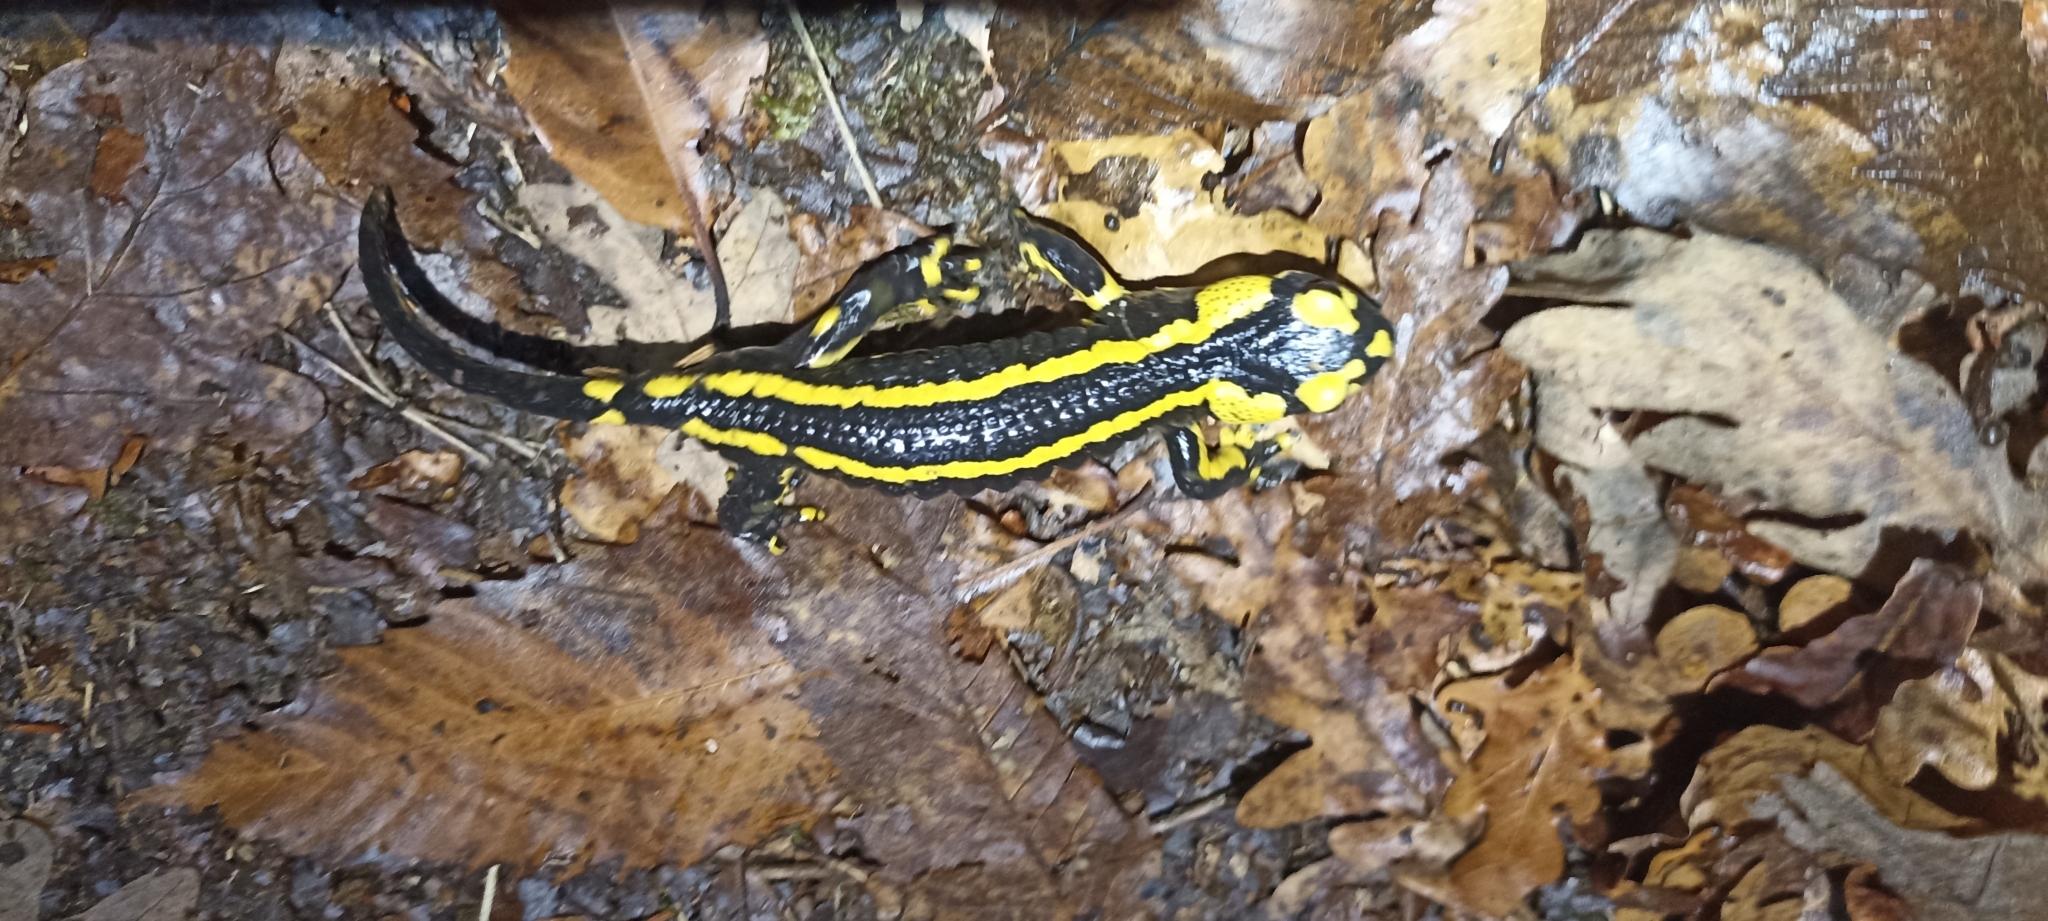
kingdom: Animalia
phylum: Chordata
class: Amphibia
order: Caudata
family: Salamandridae
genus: Salamandra
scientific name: Salamandra salamandra
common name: Fire salamander
